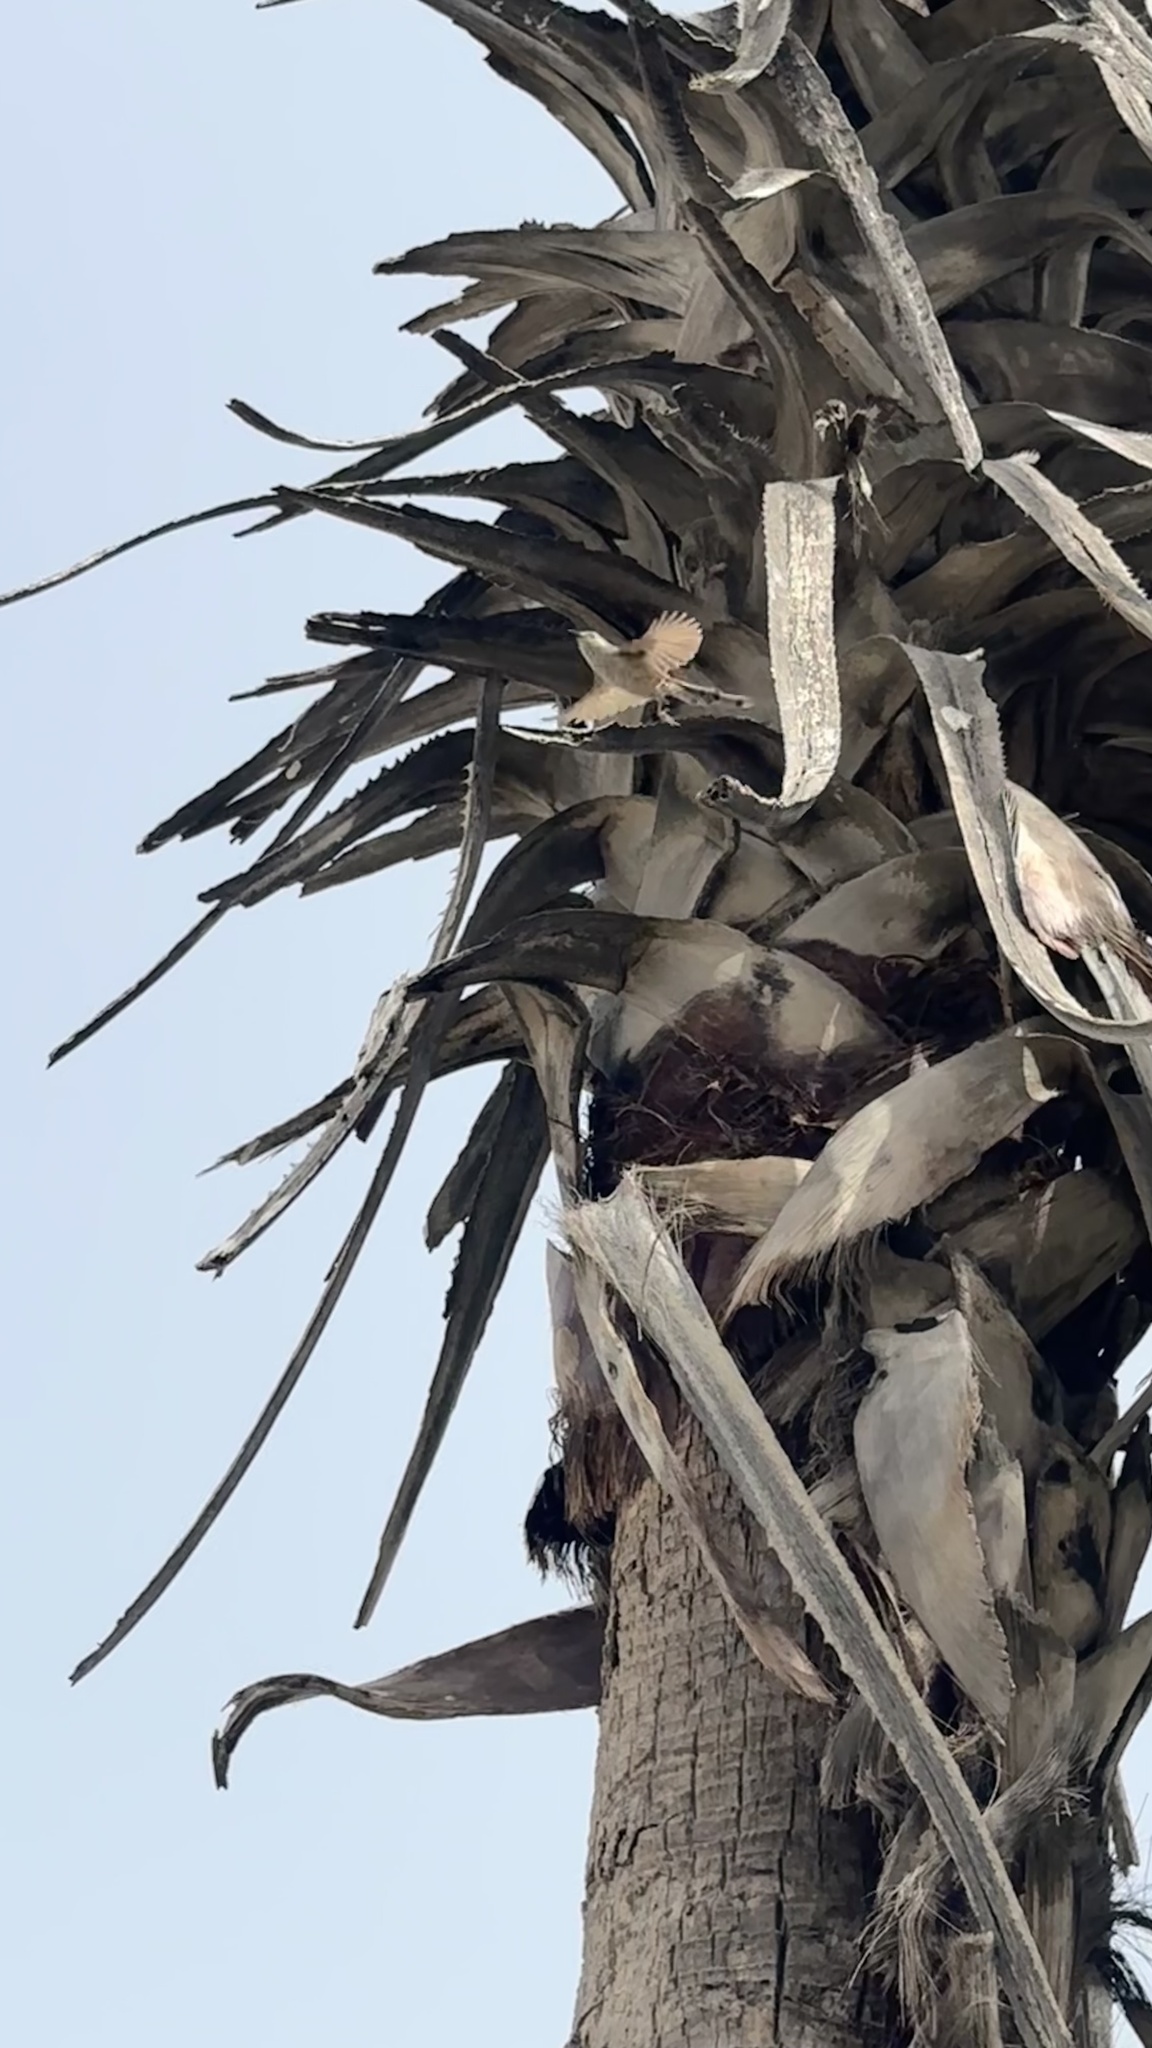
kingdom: Animalia
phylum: Chordata
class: Aves
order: Passeriformes
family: Cisticolidae
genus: Prinia
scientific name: Prinia gracilis
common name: Graceful prinia
